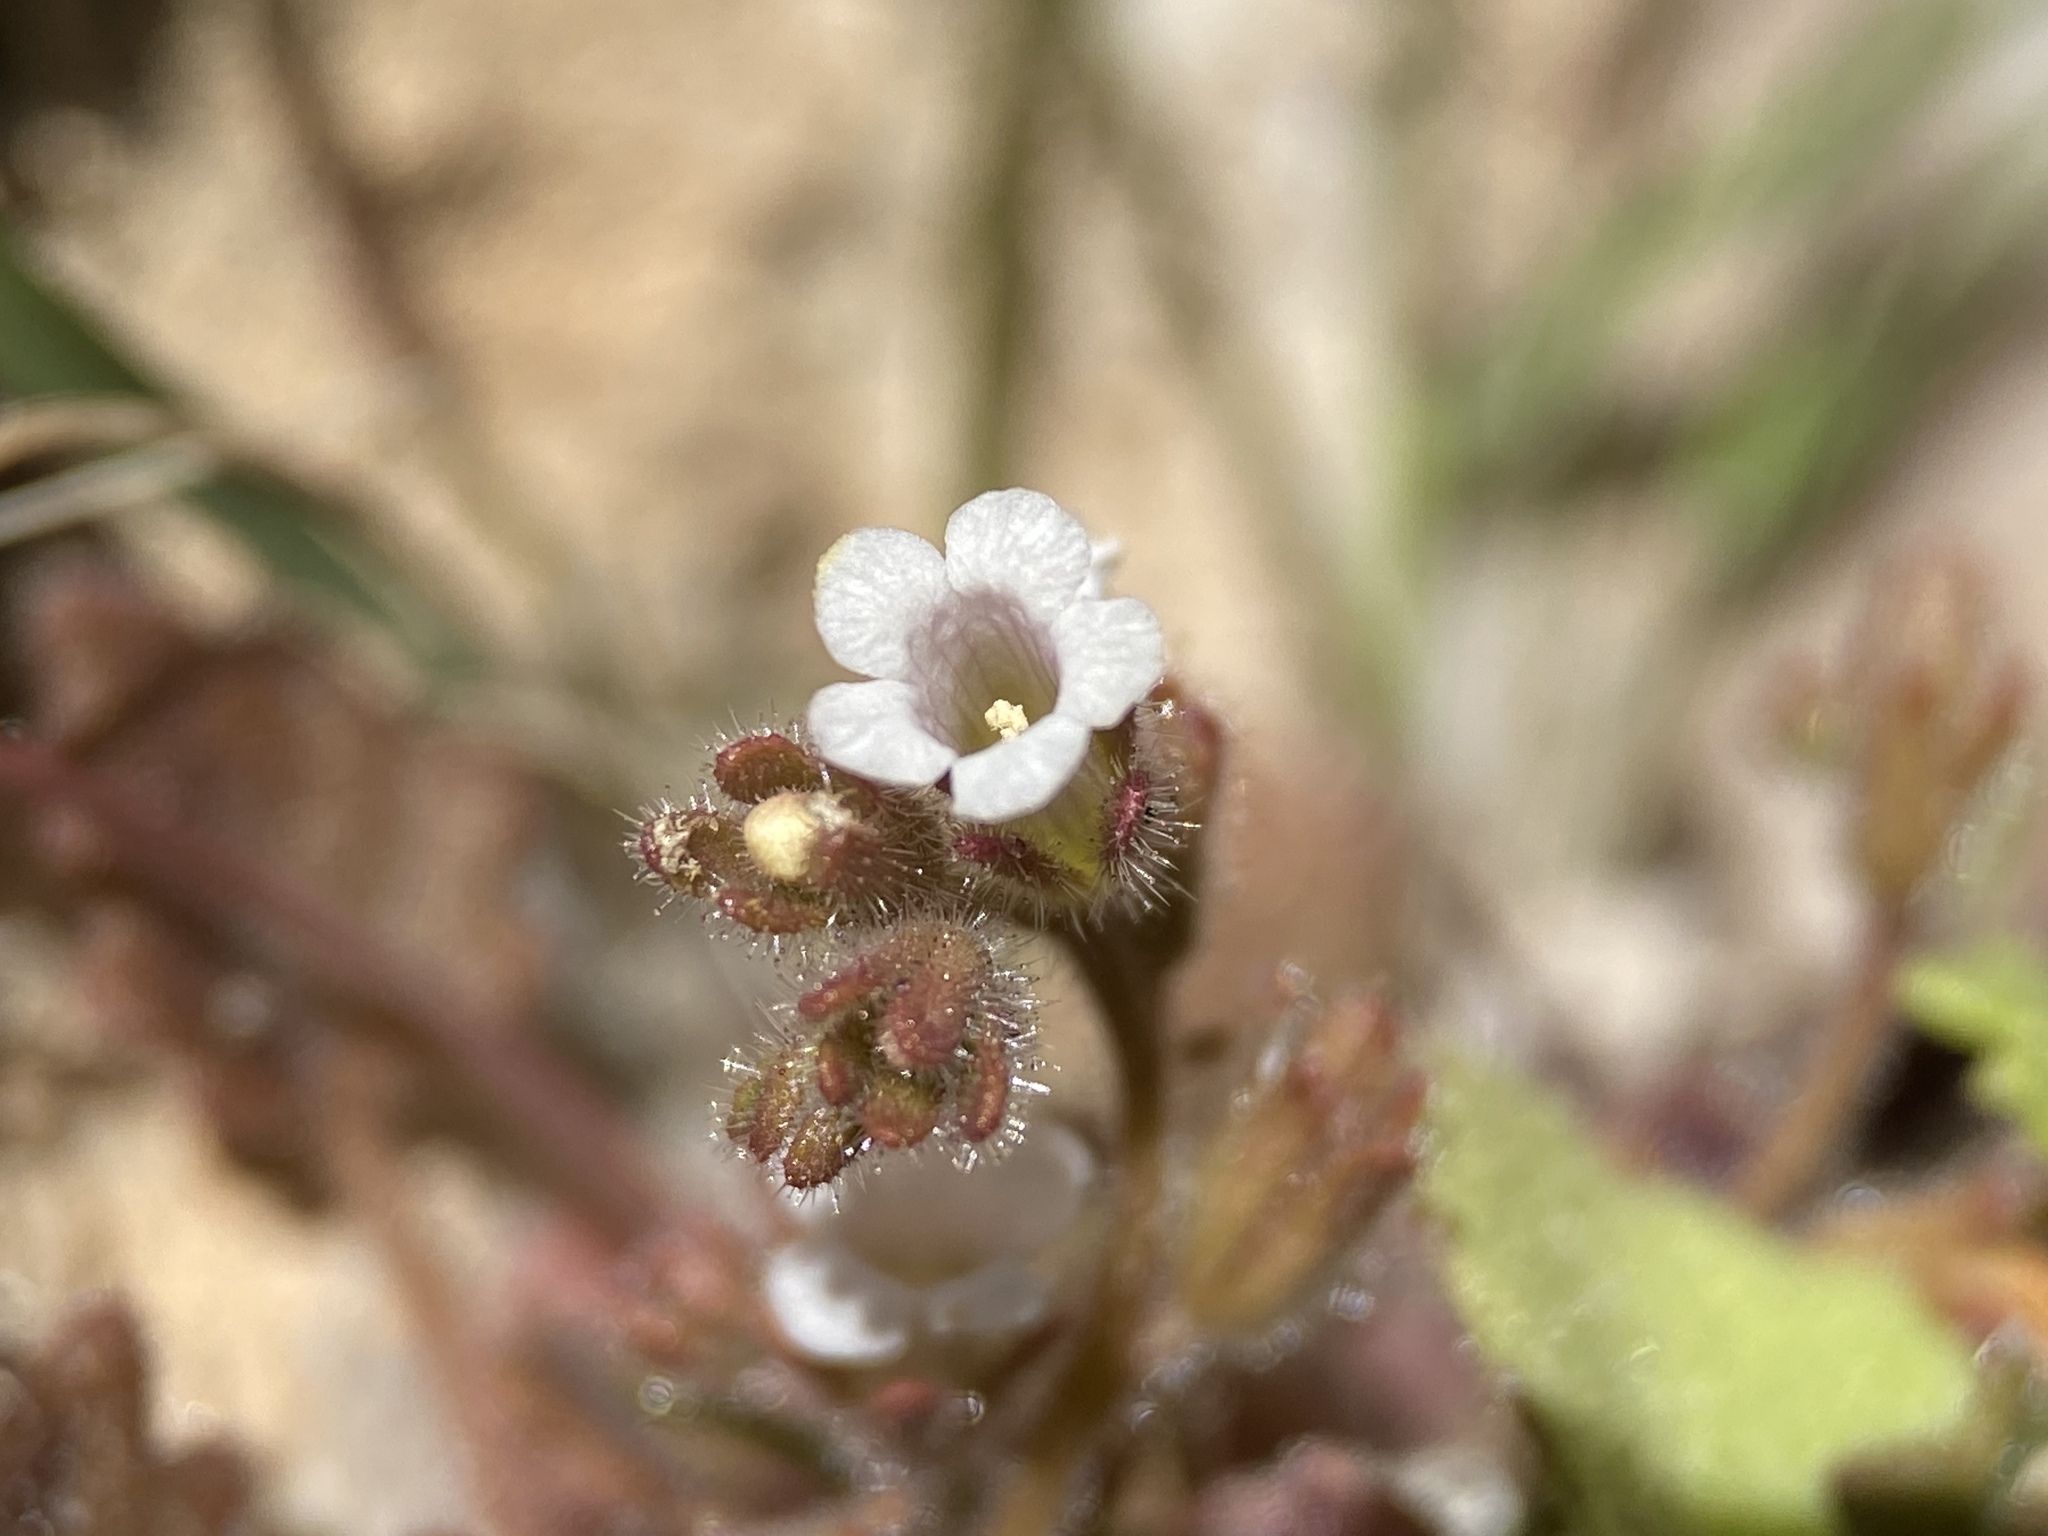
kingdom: Plantae
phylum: Tracheophyta
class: Magnoliopsida
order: Boraginales
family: Hydrophyllaceae
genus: Phacelia
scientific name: Phacelia rotundifolia
